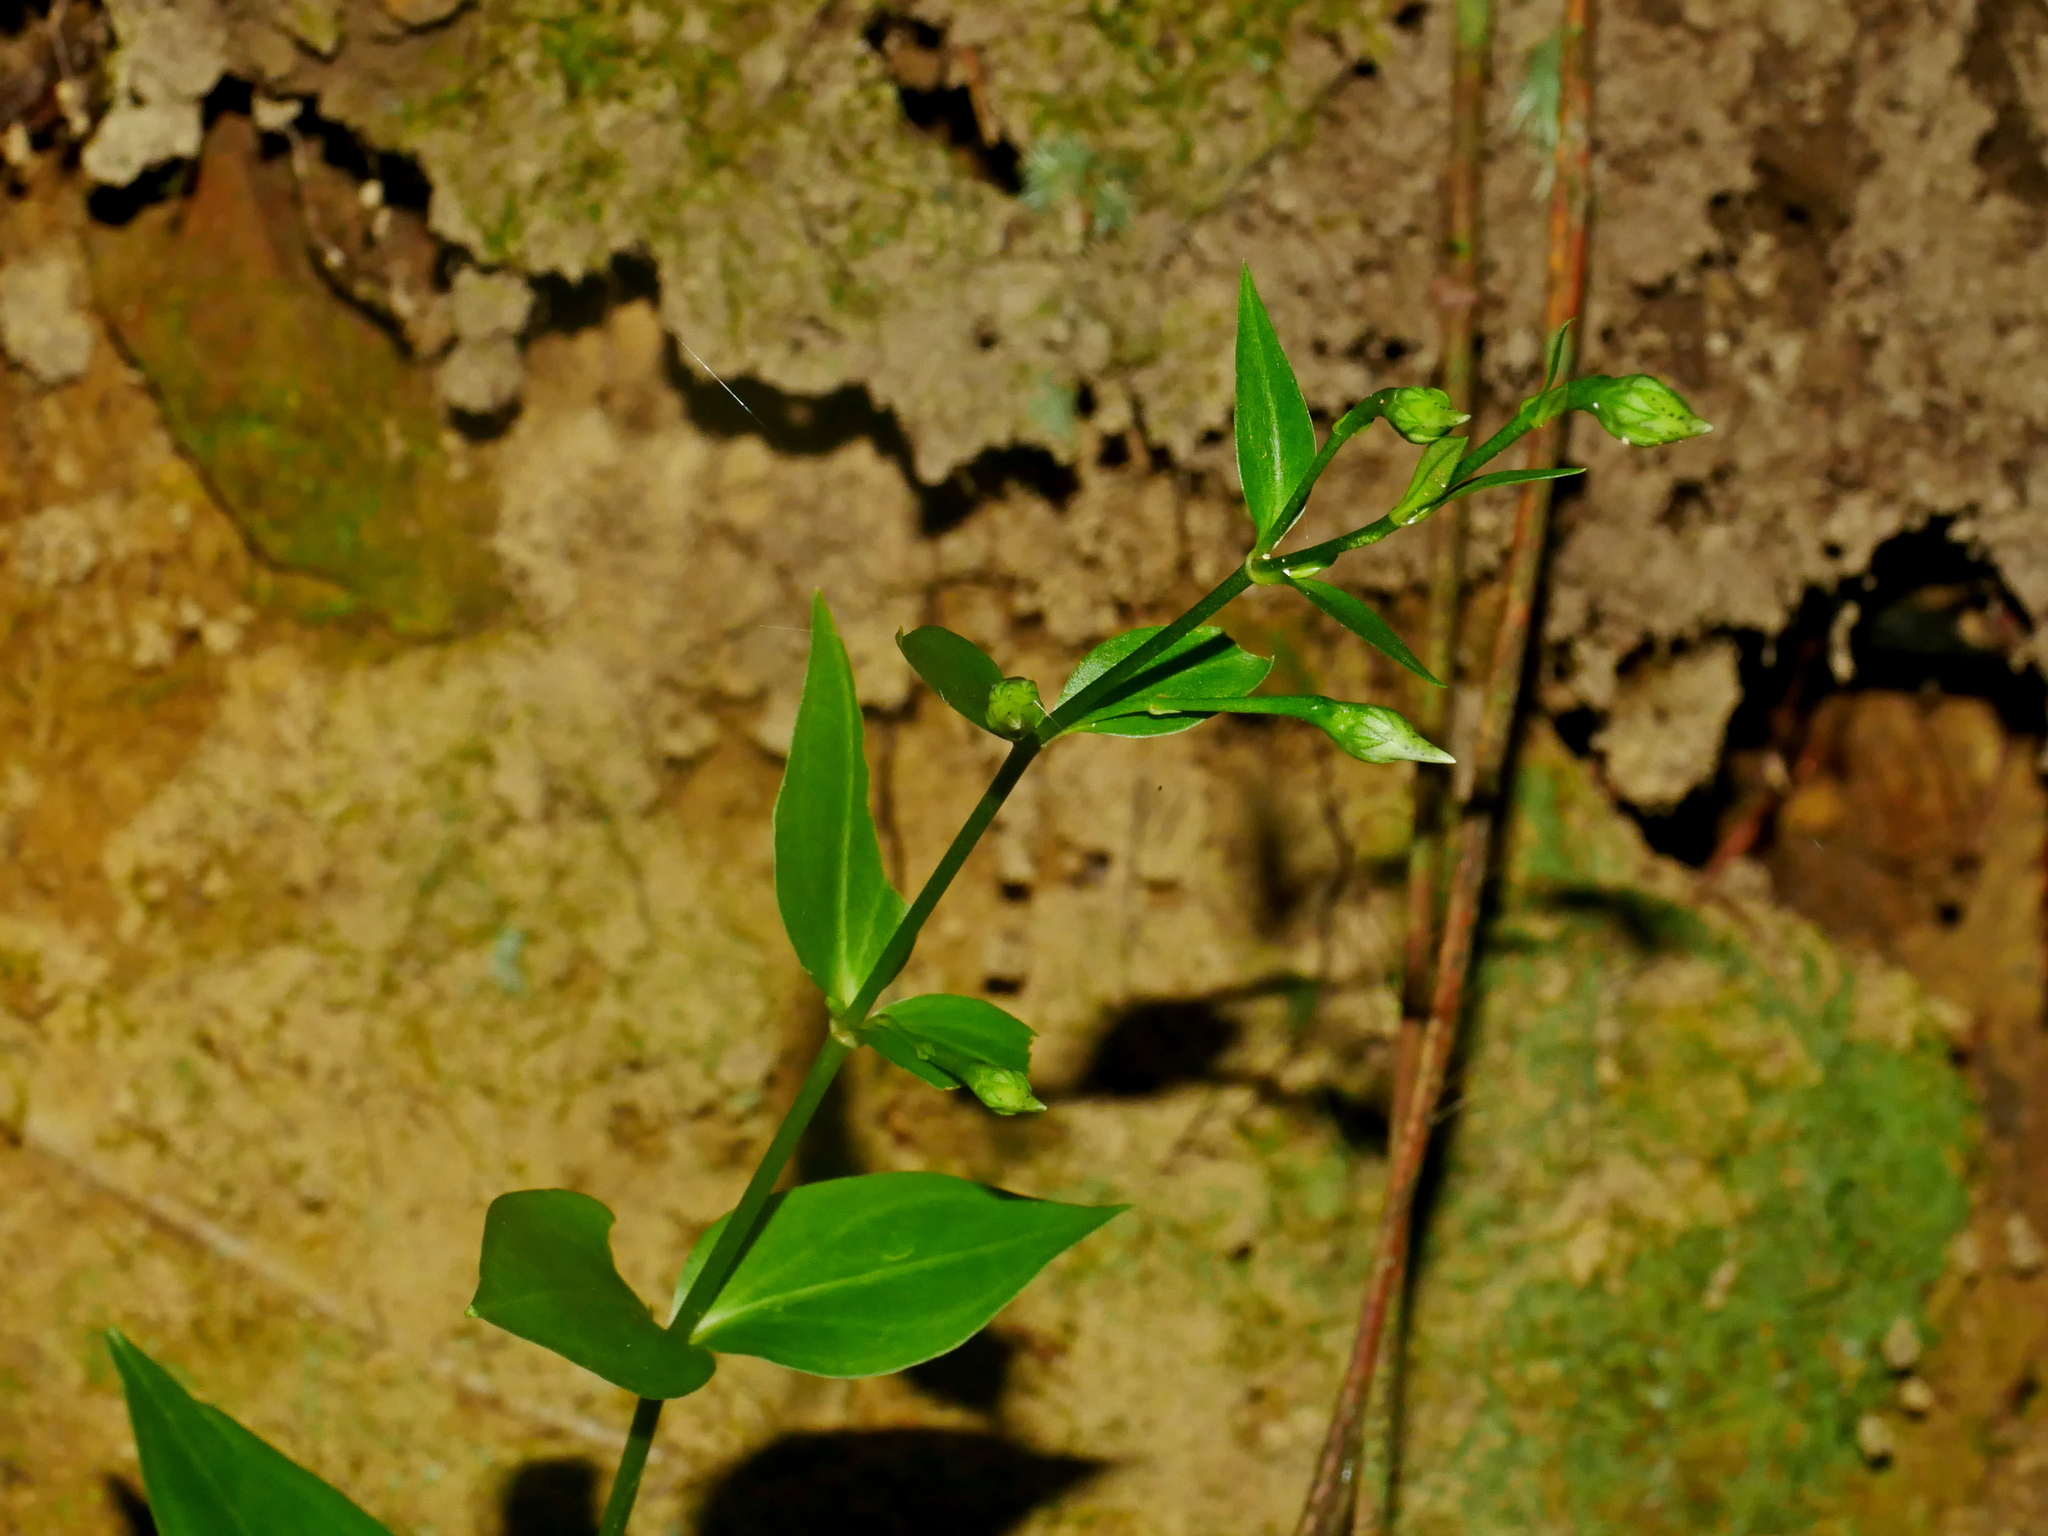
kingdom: Plantae
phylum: Tracheophyta
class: Magnoliopsida
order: Gentianales
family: Gentianaceae
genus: Swertia
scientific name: Swertia shintenensis
